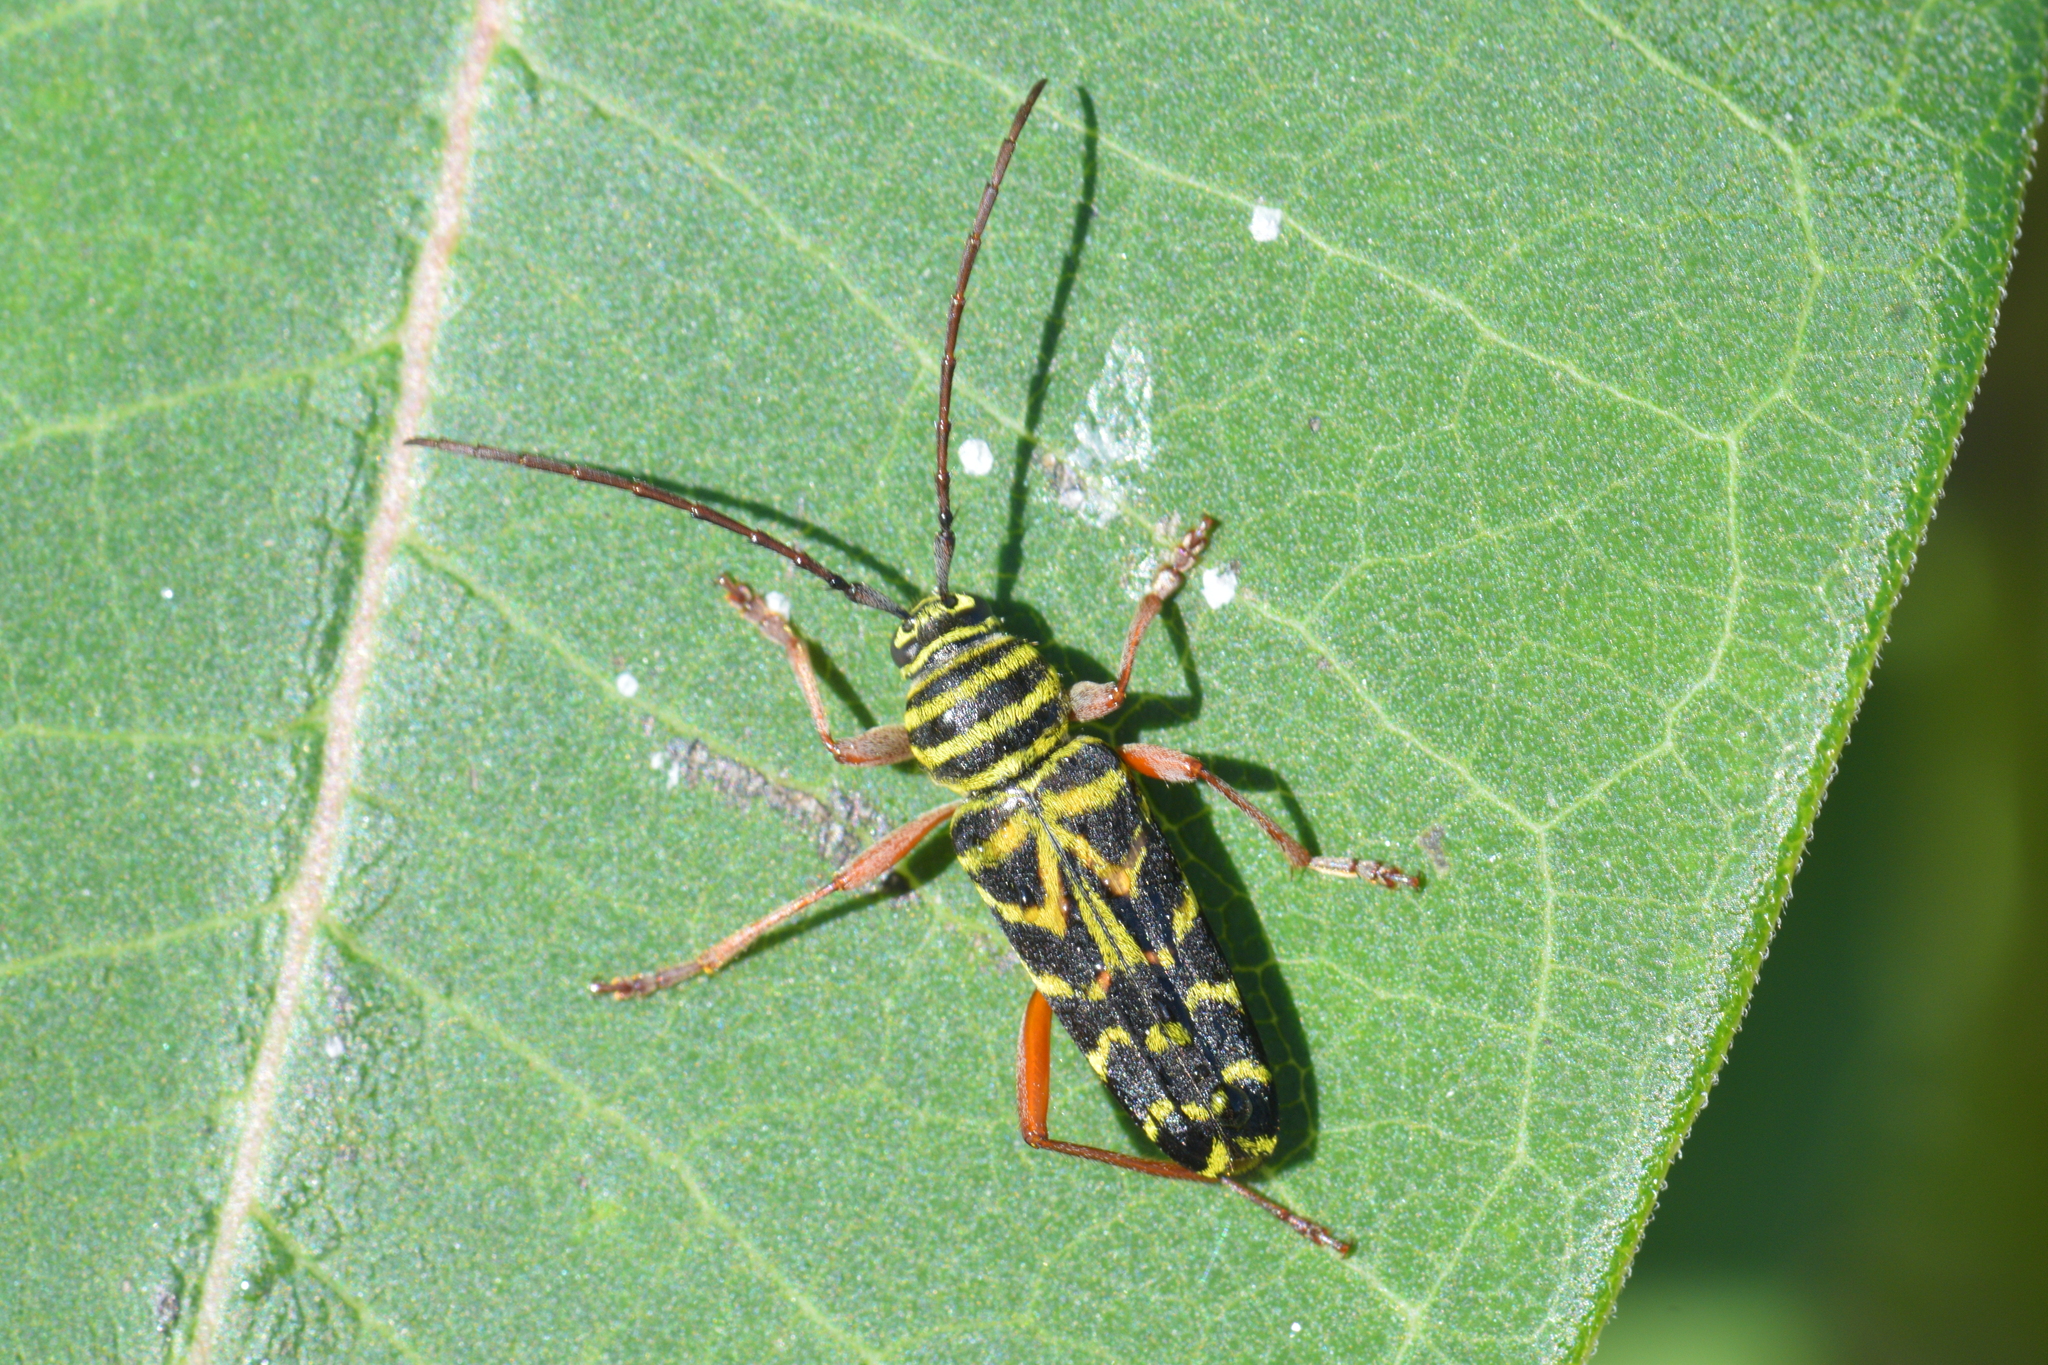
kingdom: Animalia
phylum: Arthropoda
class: Insecta
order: Coleoptera
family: Cerambycidae
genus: Megacyllene
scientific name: Megacyllene robiniae
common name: Locust borer
